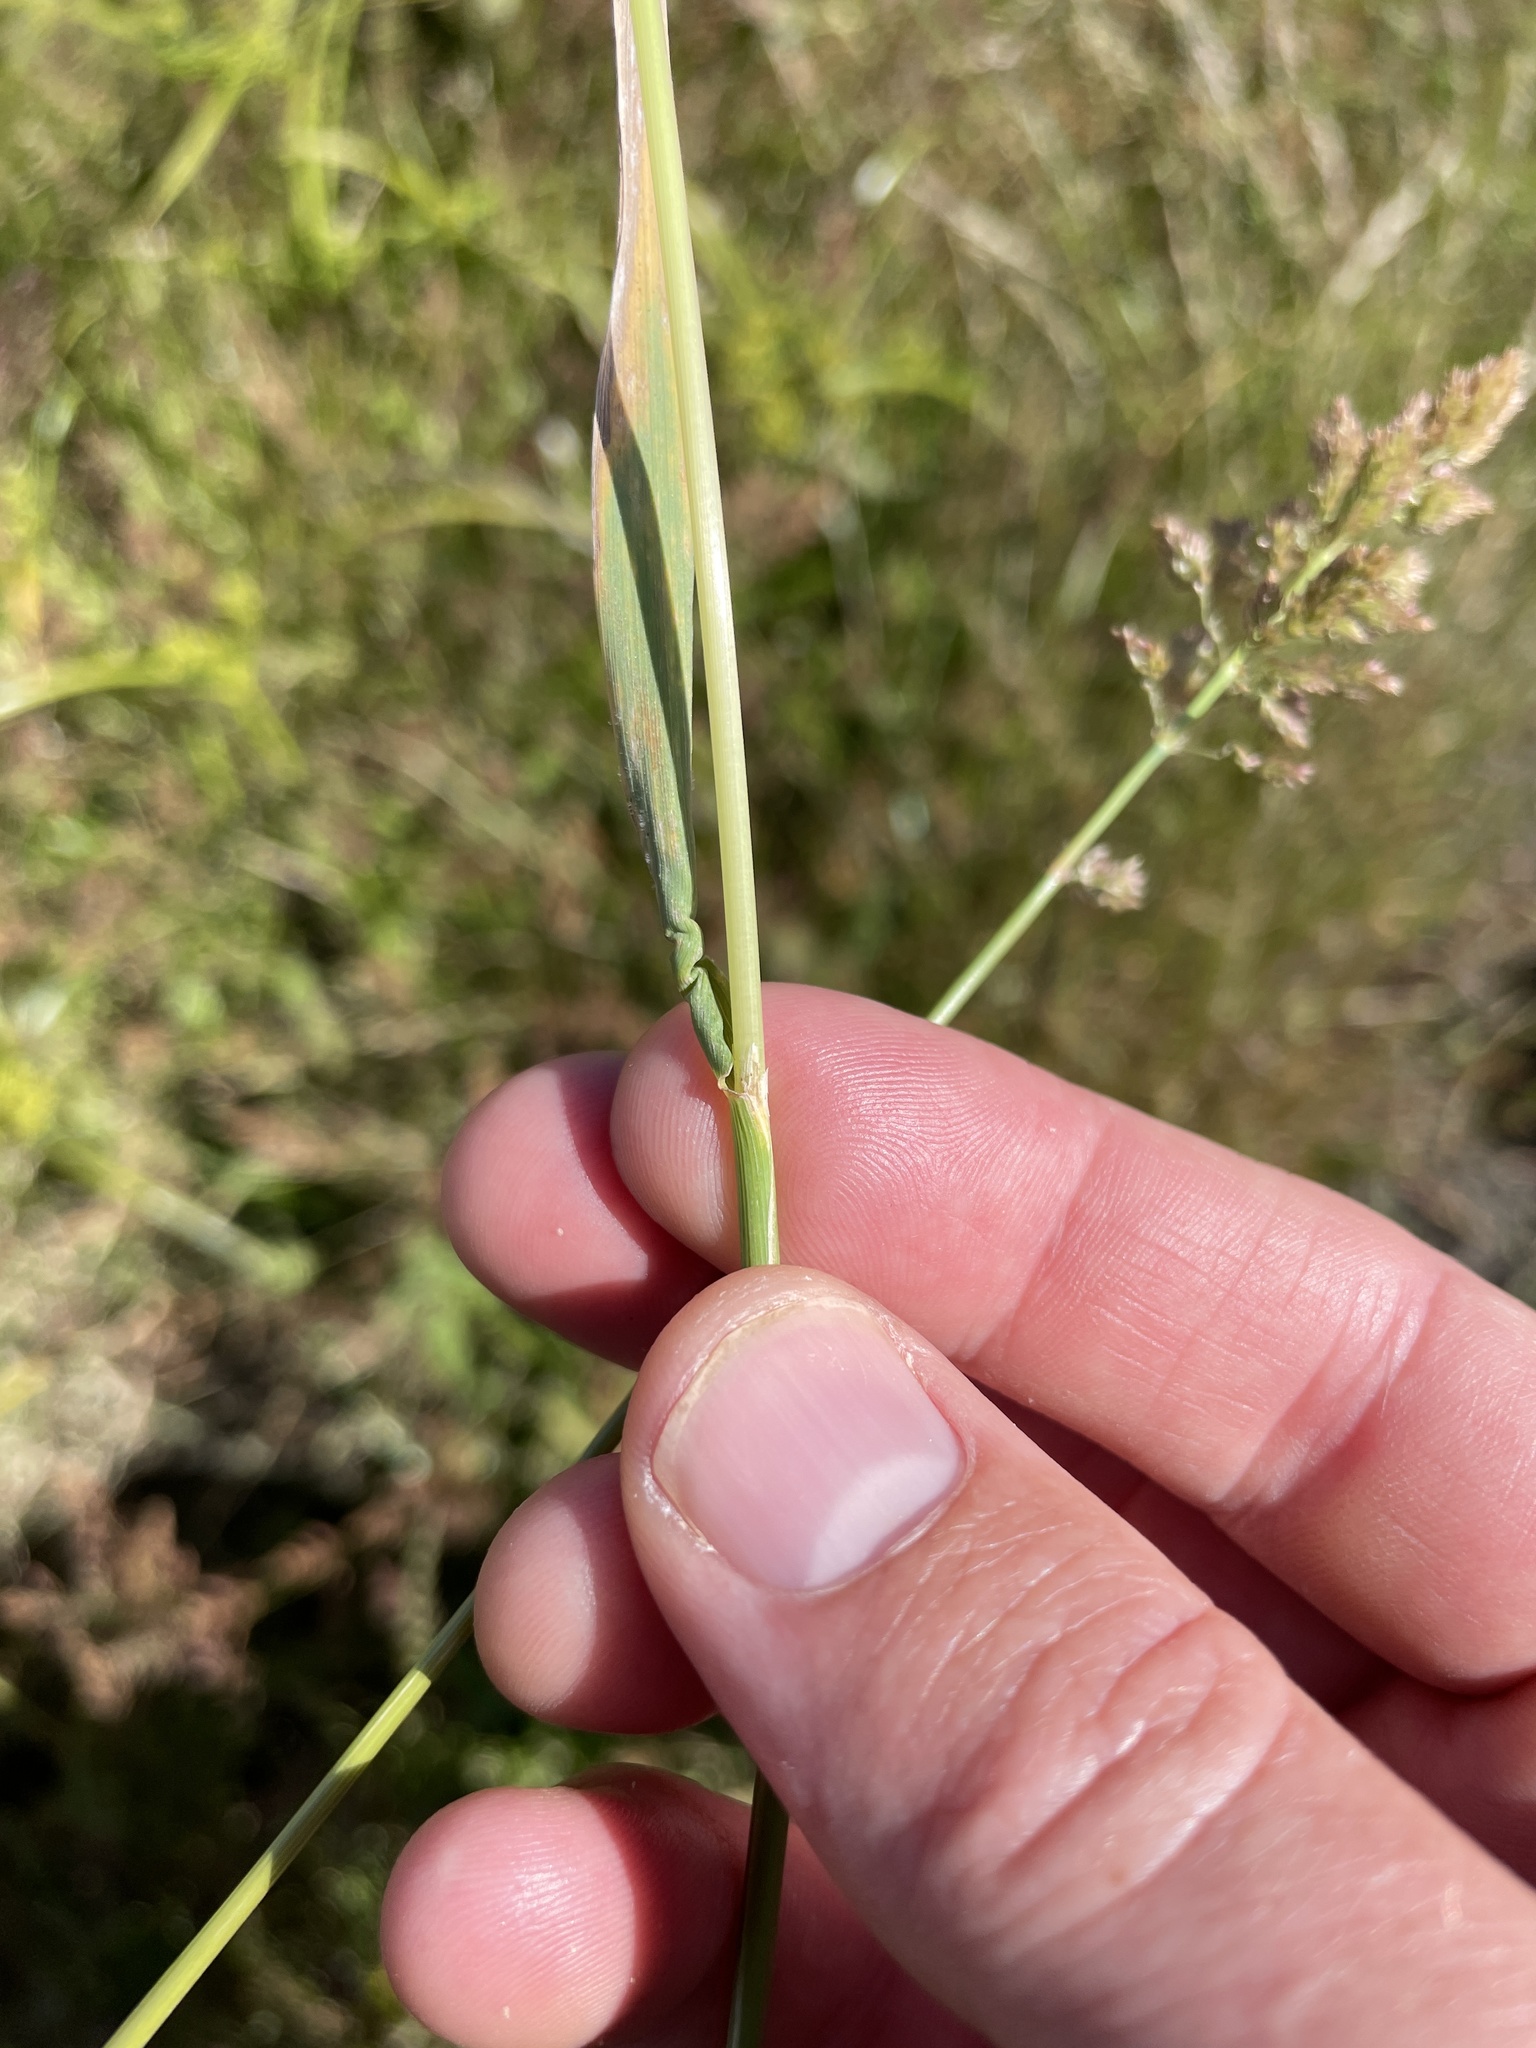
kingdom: Plantae
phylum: Tracheophyta
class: Liliopsida
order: Poales
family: Poaceae
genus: Polypogon
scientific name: Polypogon viridis
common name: Water bent
